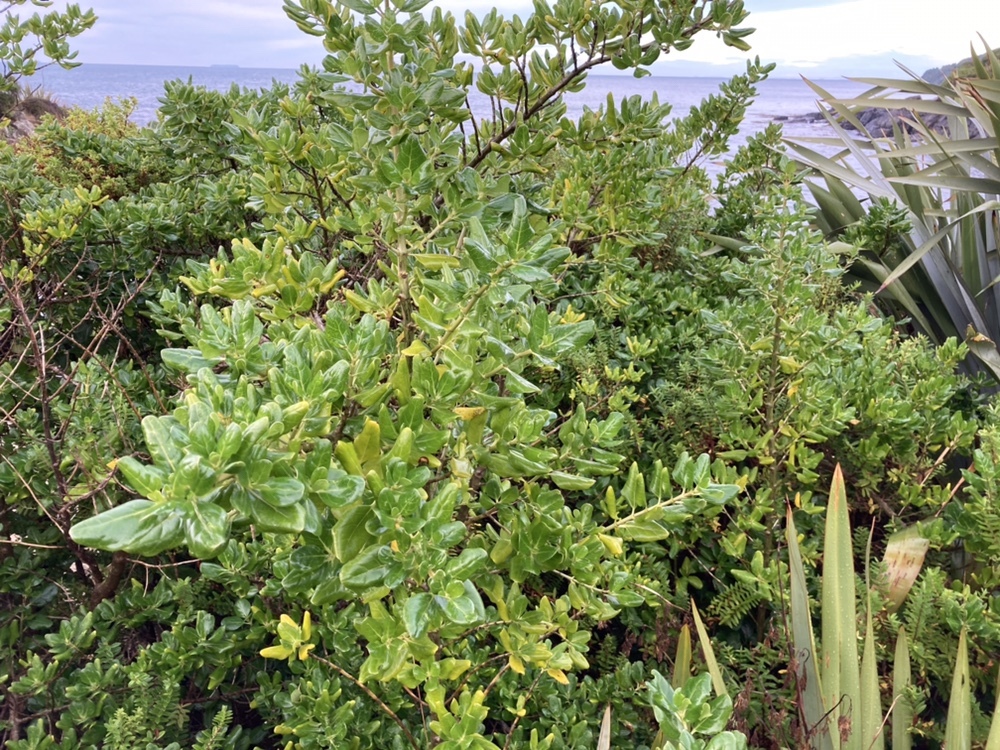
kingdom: Plantae
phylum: Tracheophyta
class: Magnoliopsida
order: Gentianales
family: Rubiaceae
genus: Coprosma
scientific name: Coprosma repens
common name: Tree bedstraw
